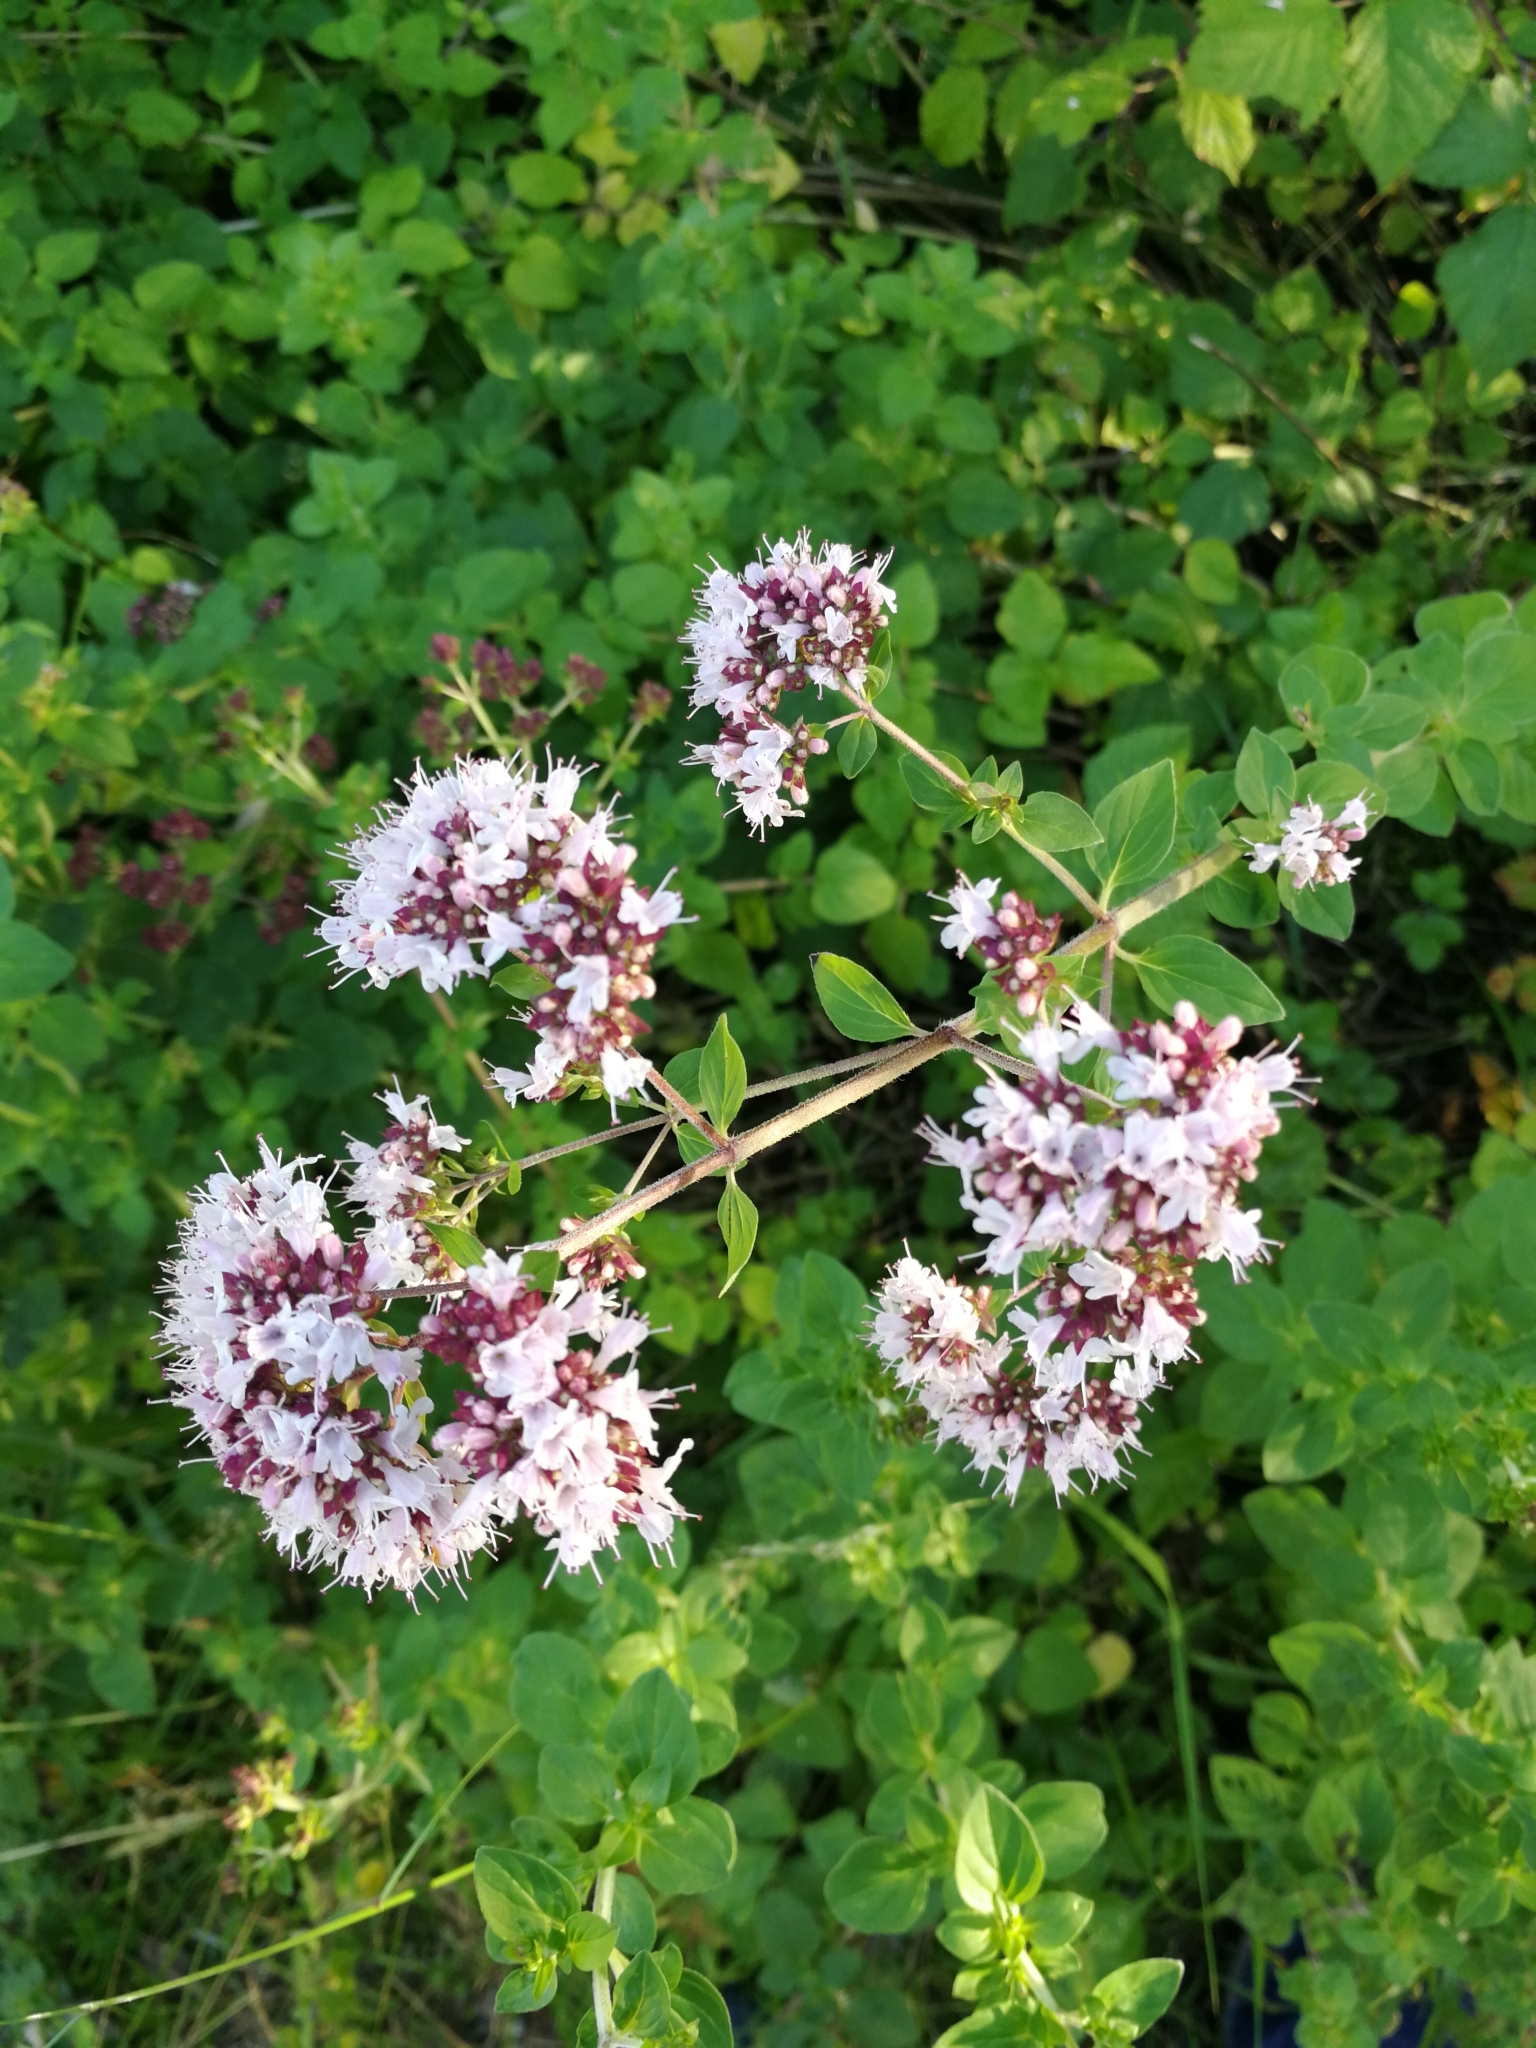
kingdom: Plantae
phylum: Tracheophyta
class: Magnoliopsida
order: Lamiales
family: Lamiaceae
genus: Origanum
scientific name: Origanum vulgare
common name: Wild marjoram
